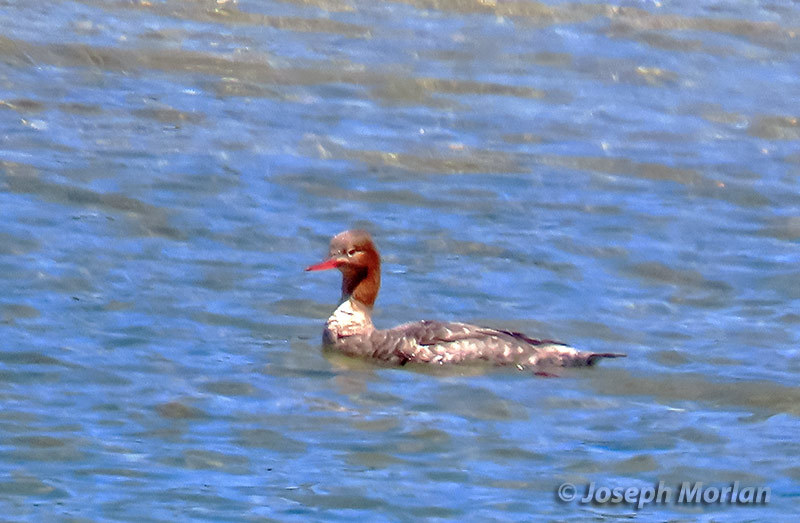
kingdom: Animalia
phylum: Chordata
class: Aves
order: Anseriformes
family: Anatidae
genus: Mergus
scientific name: Mergus serrator
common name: Red-breasted merganser
